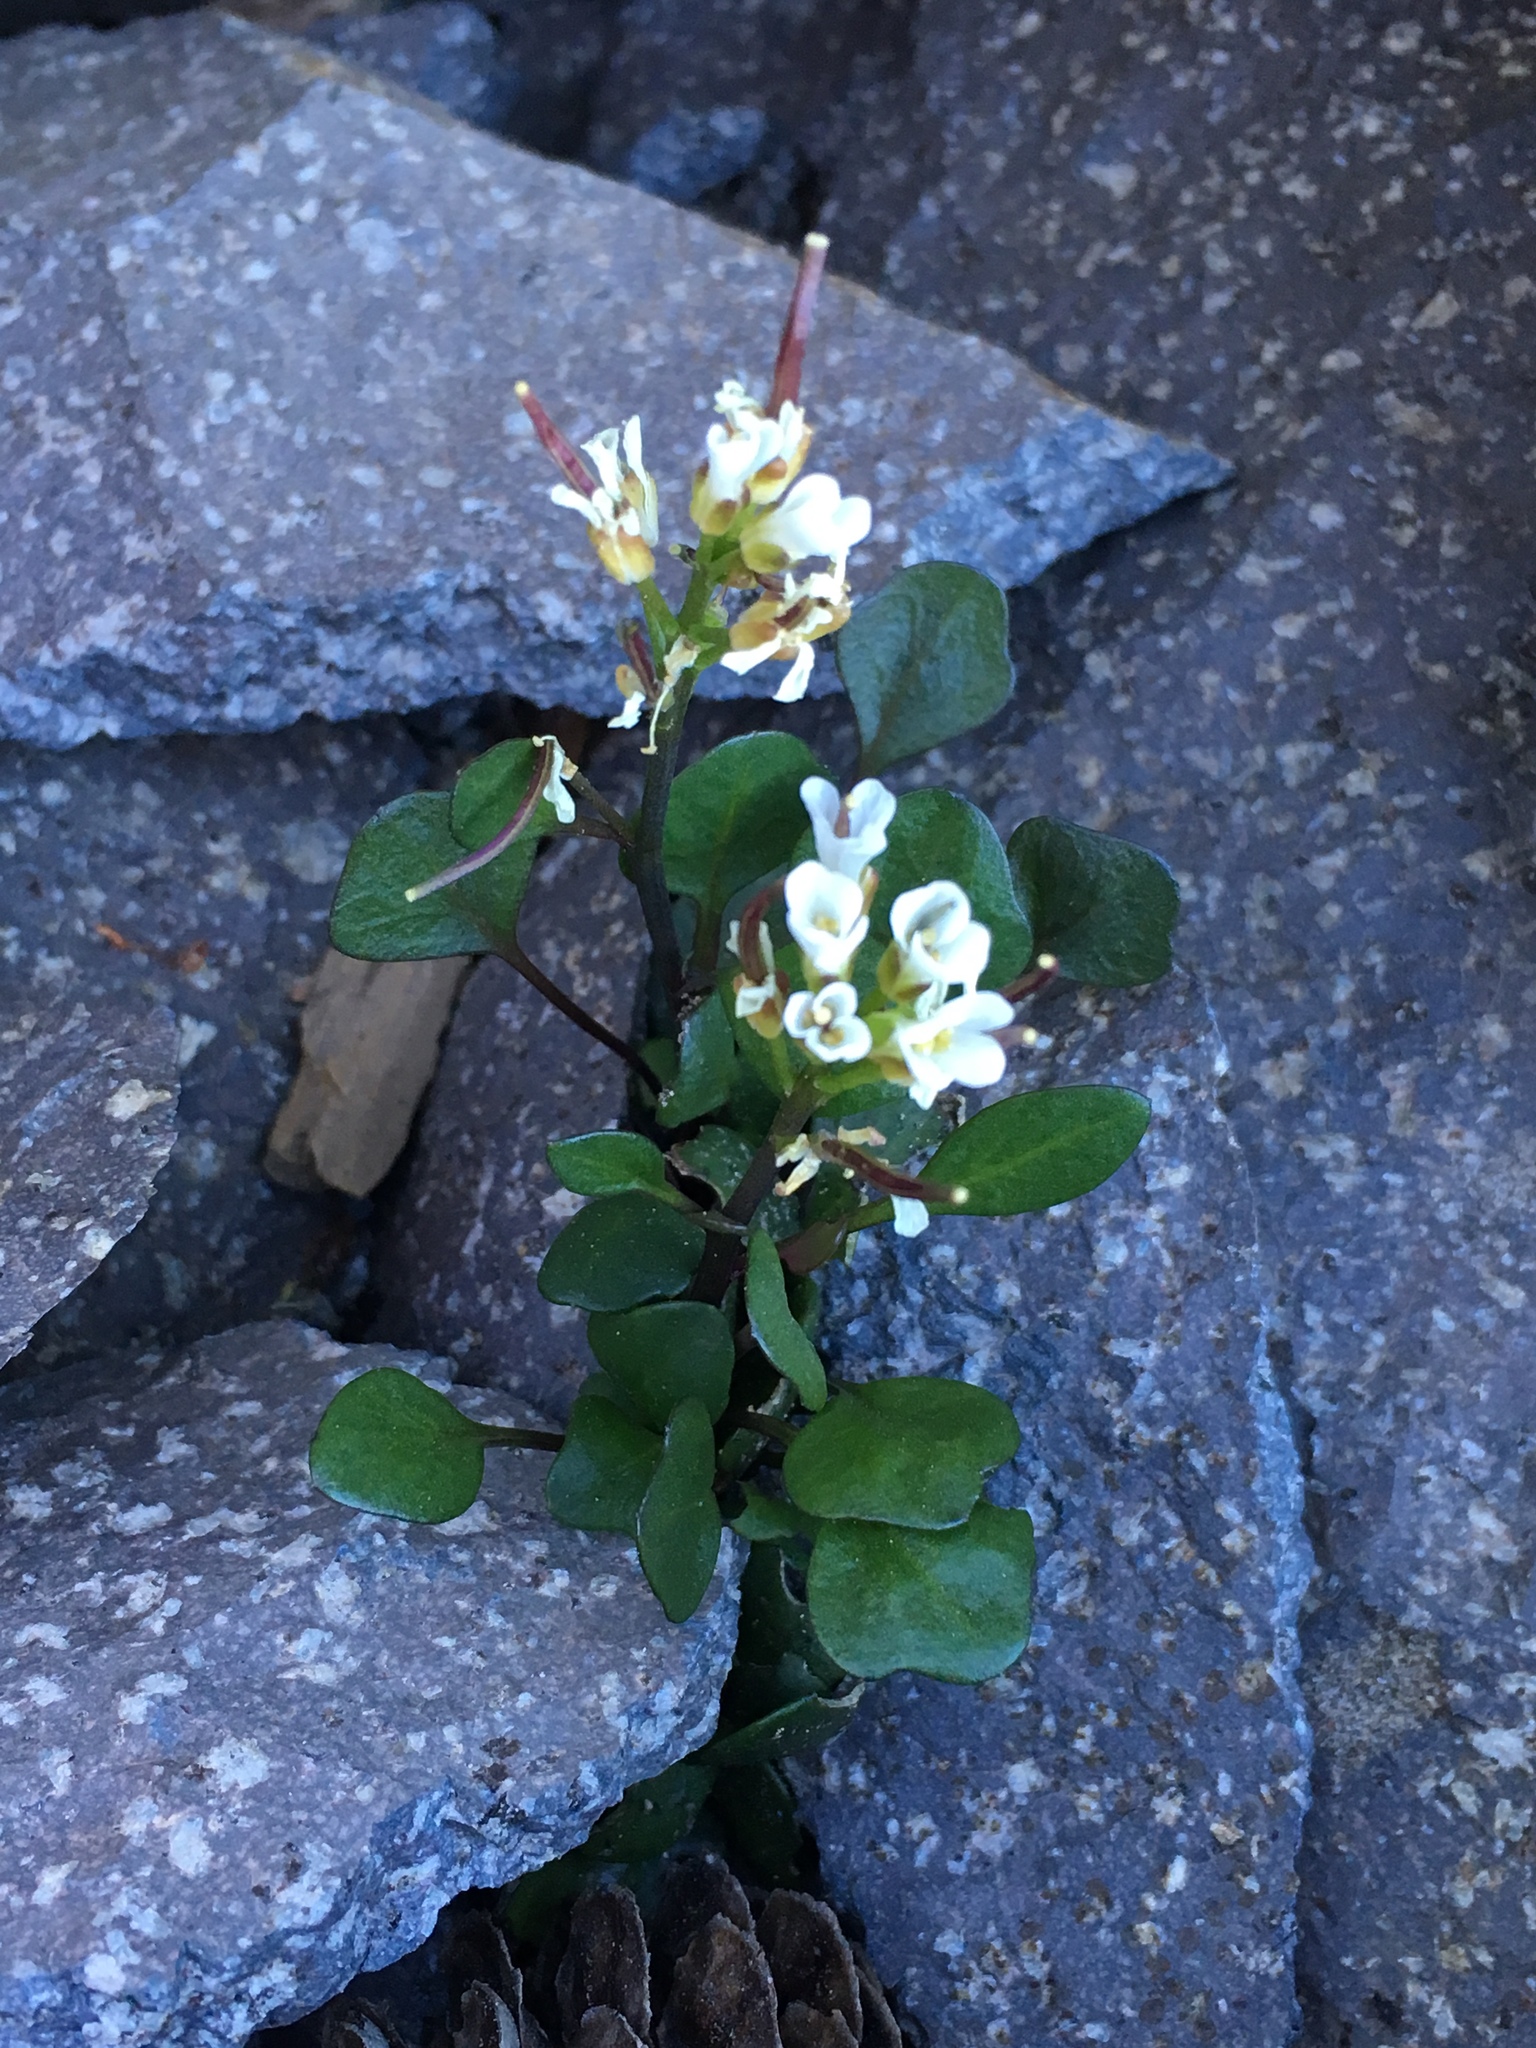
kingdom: Plantae
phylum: Tracheophyta
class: Magnoliopsida
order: Brassicales
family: Brassicaceae
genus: Cardamine
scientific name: Cardamine bellidifolia
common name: Alpine bittercress
